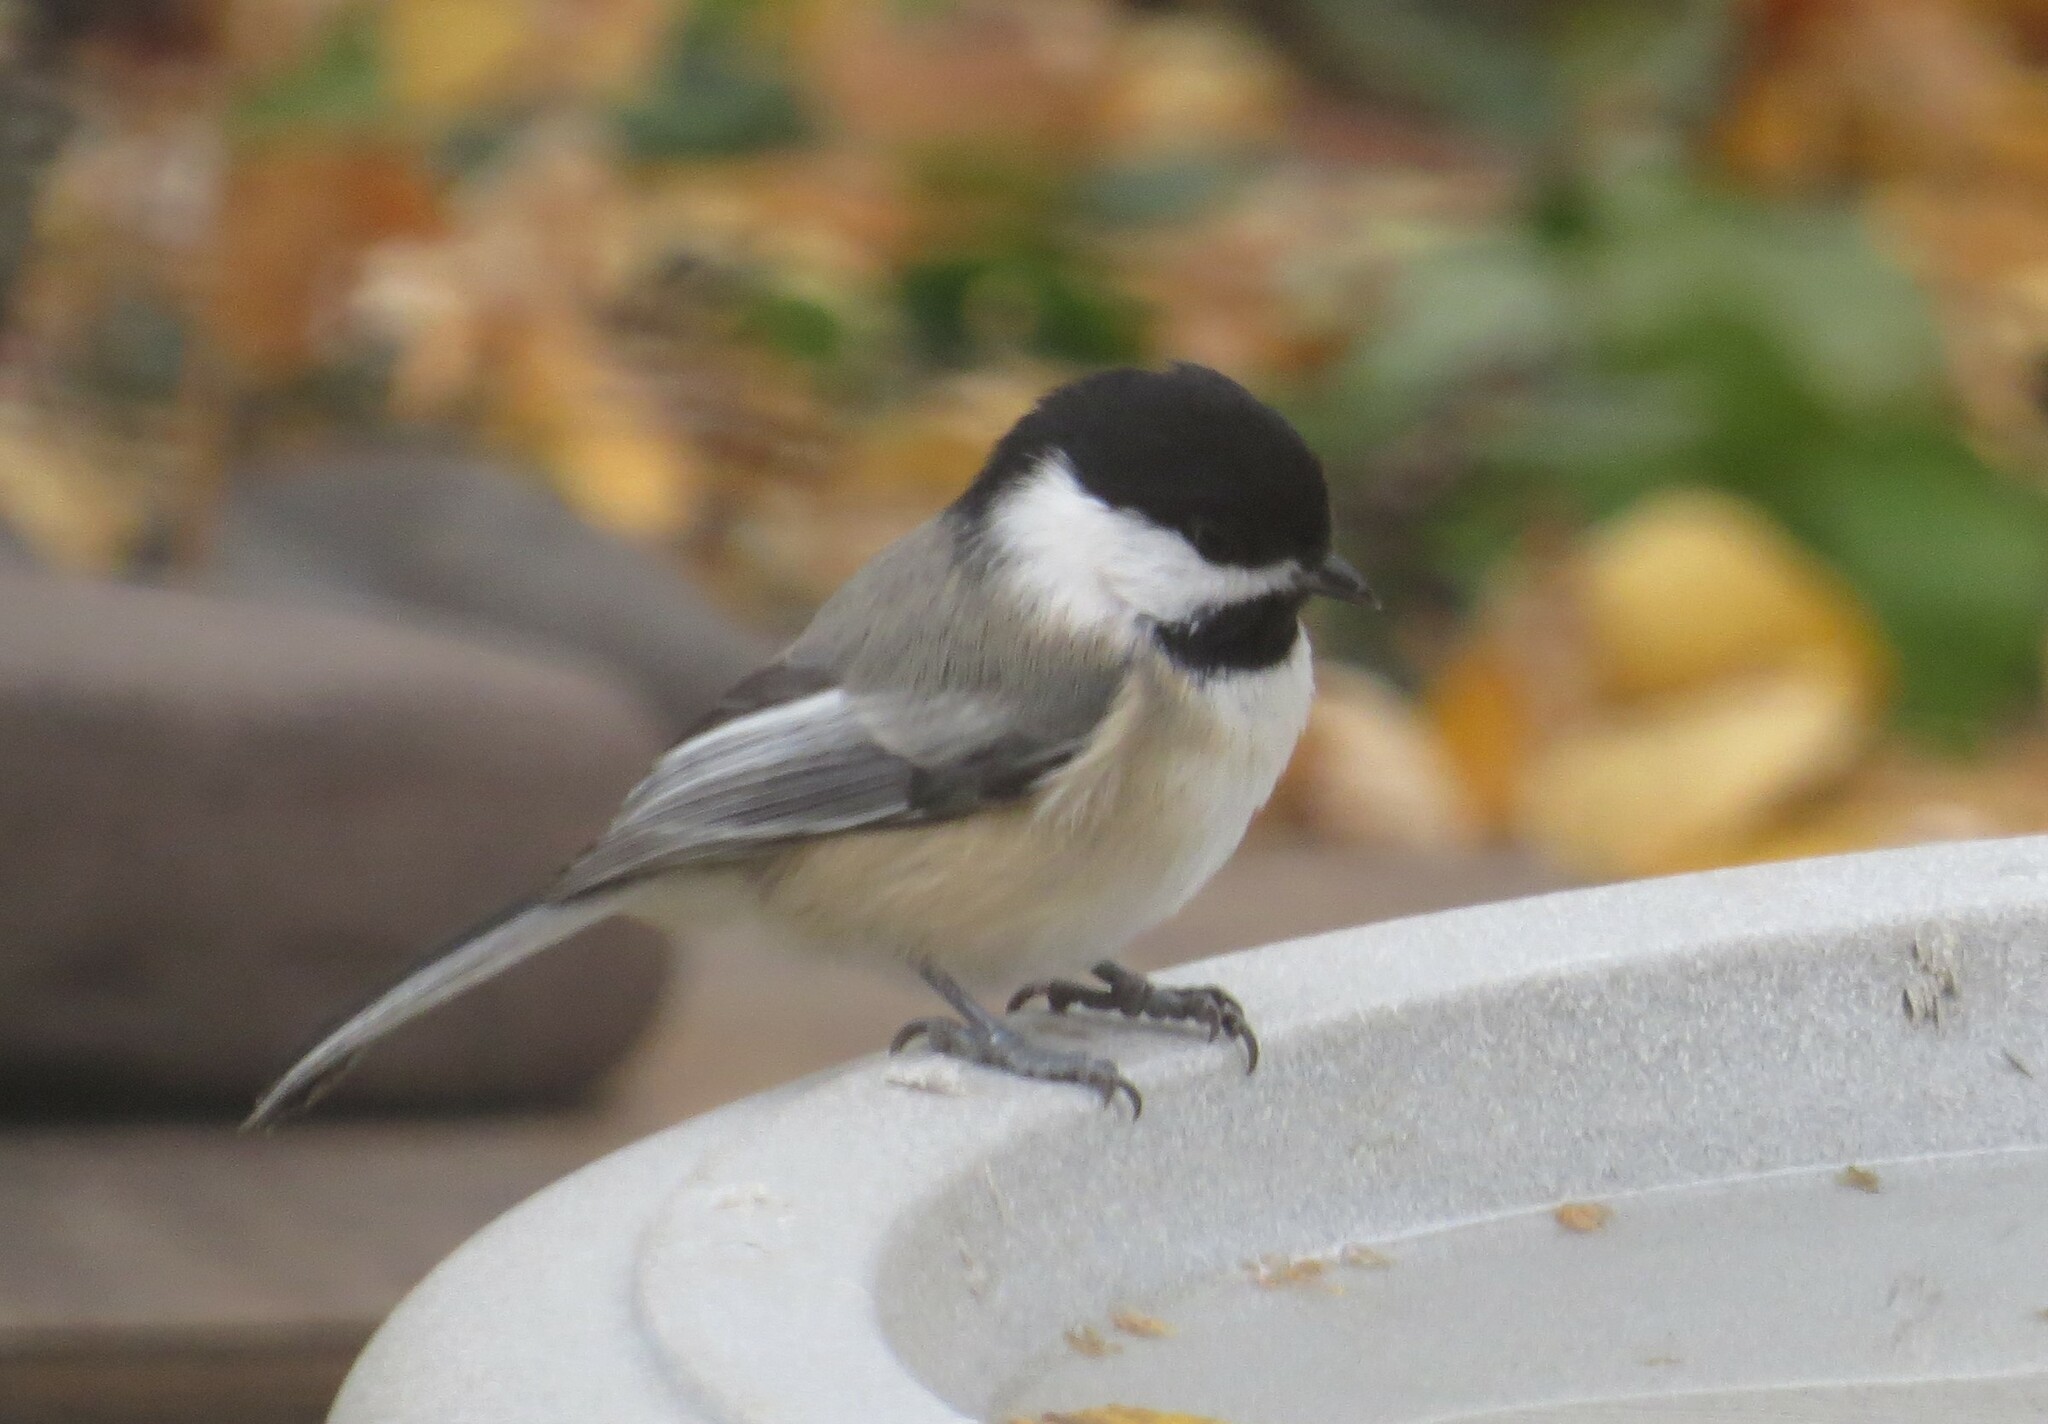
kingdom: Animalia
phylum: Chordata
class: Aves
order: Passeriformes
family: Paridae
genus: Poecile
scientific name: Poecile atricapillus
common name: Black-capped chickadee
